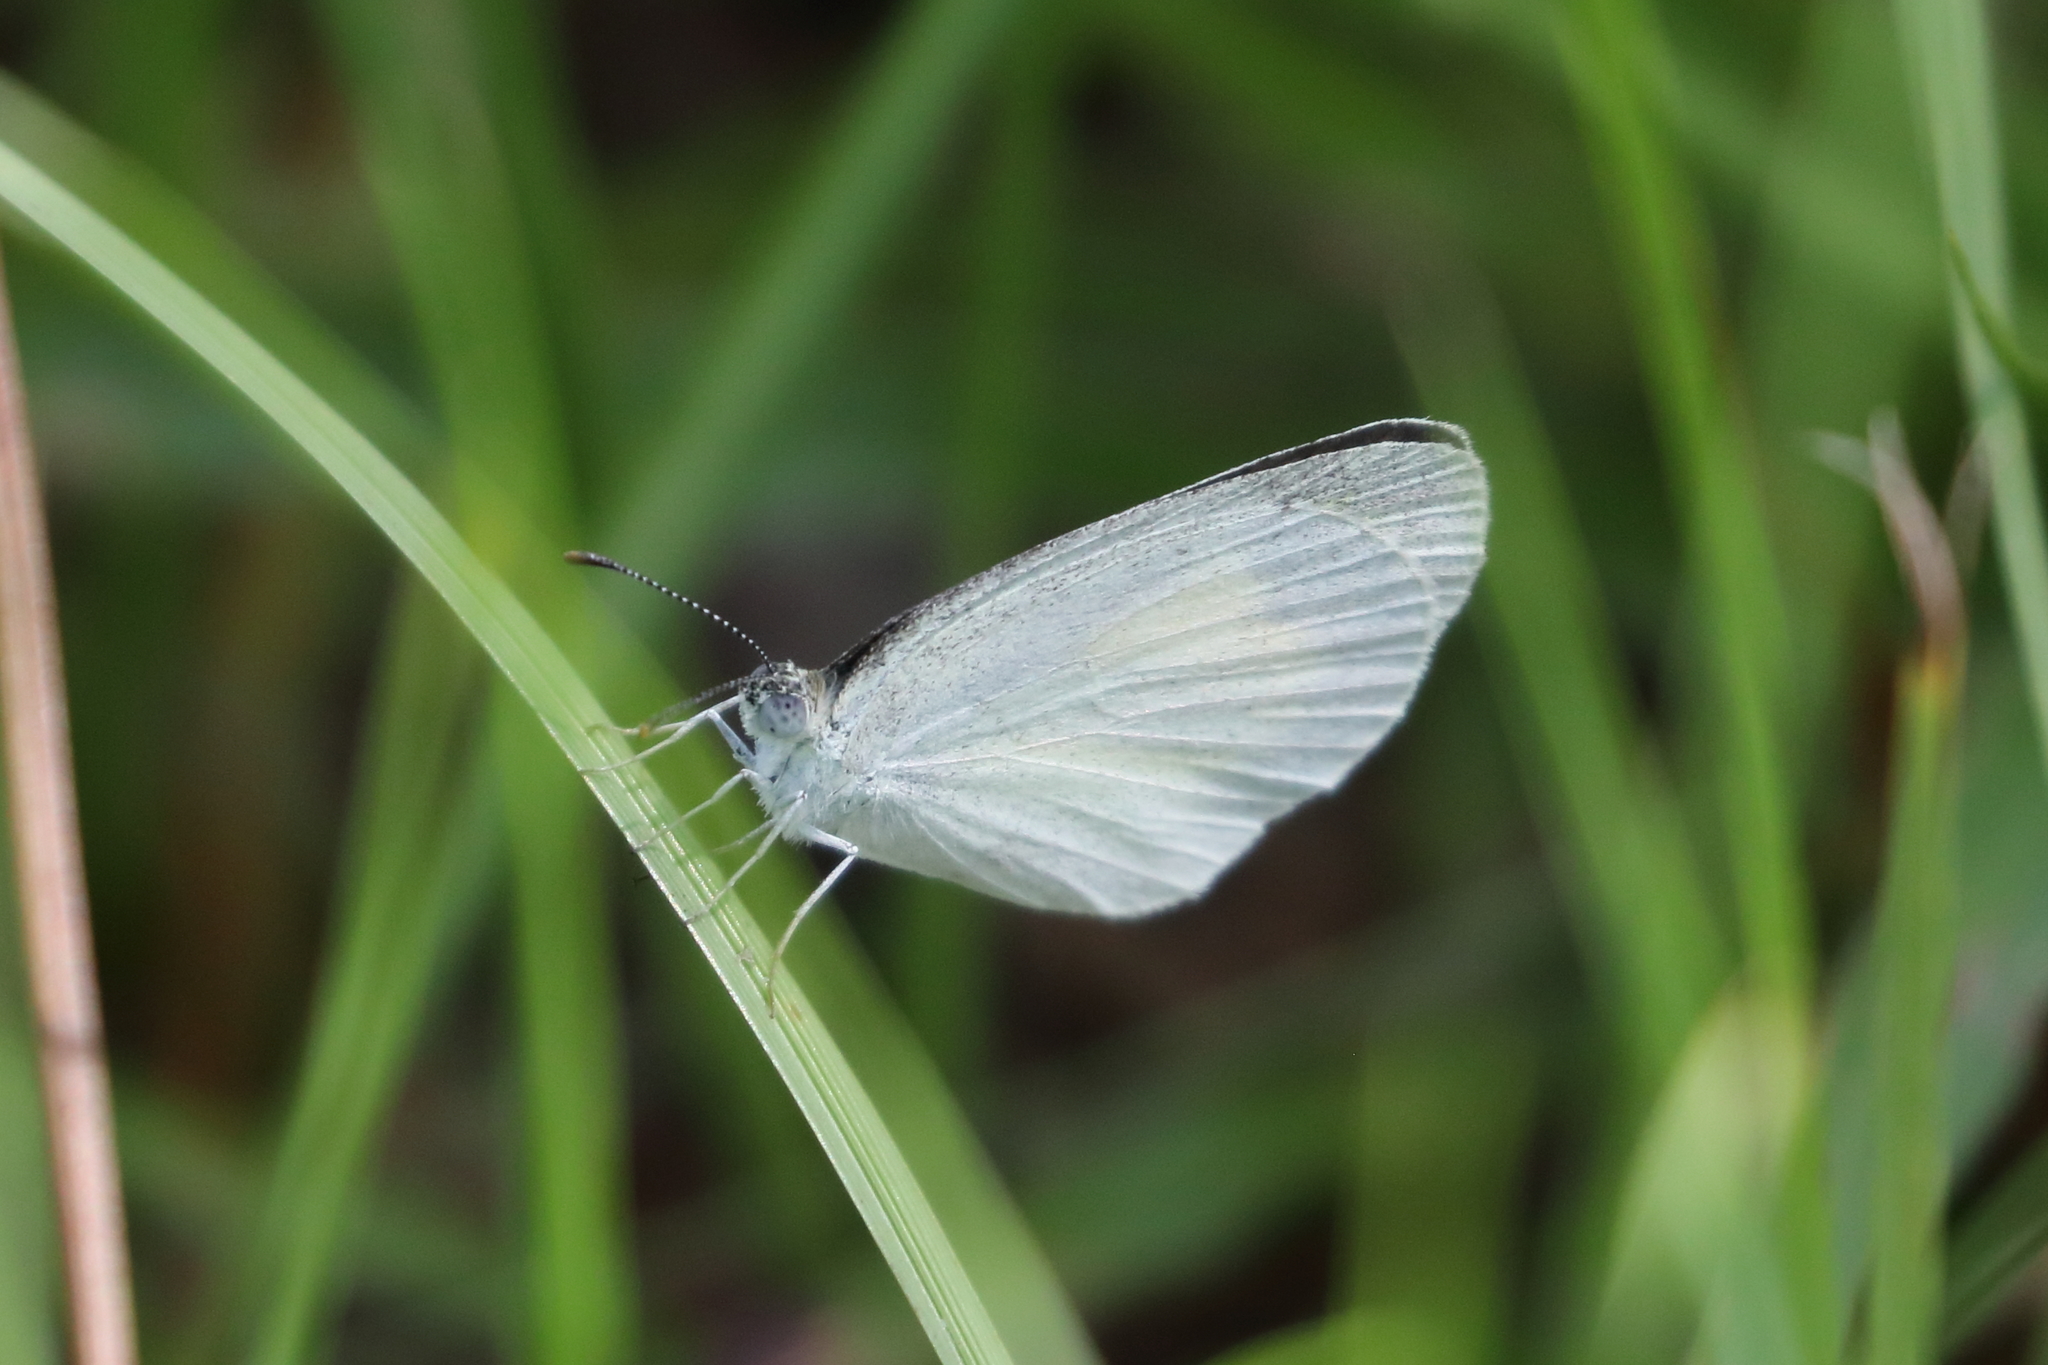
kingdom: Animalia
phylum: Arthropoda
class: Insecta
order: Lepidoptera
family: Pieridae
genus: Eurema
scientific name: Eurema daira
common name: Barred sulphur
